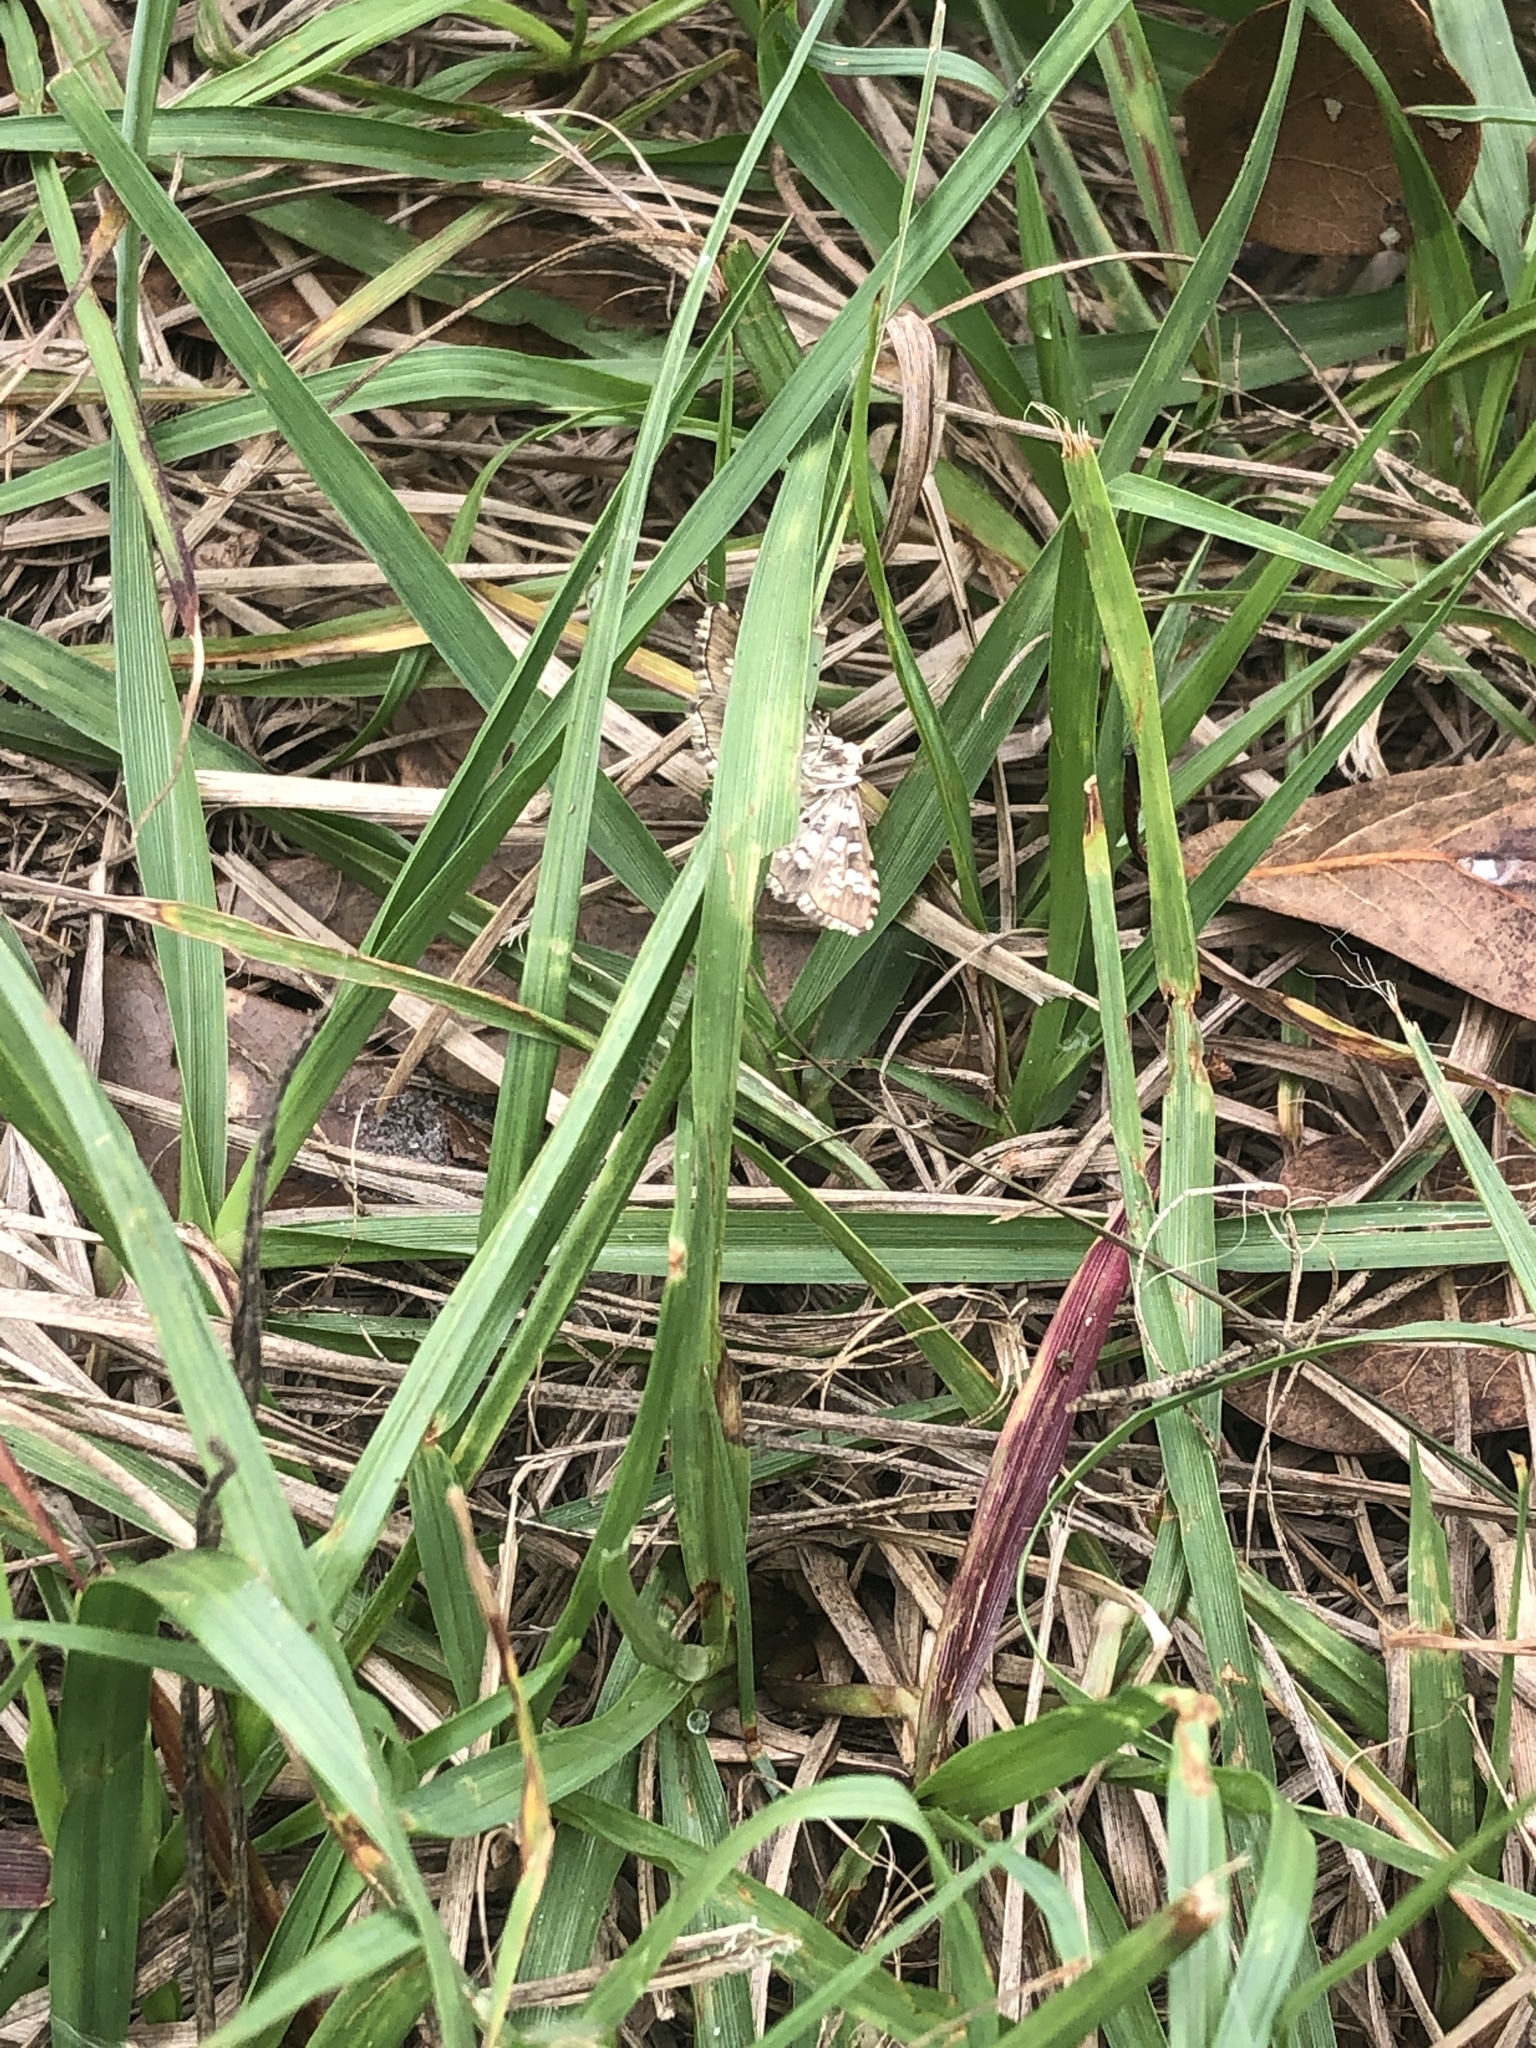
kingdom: Animalia
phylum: Arthropoda
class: Insecta
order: Lepidoptera
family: Crambidae
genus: Samea
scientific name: Samea ecclesialis
